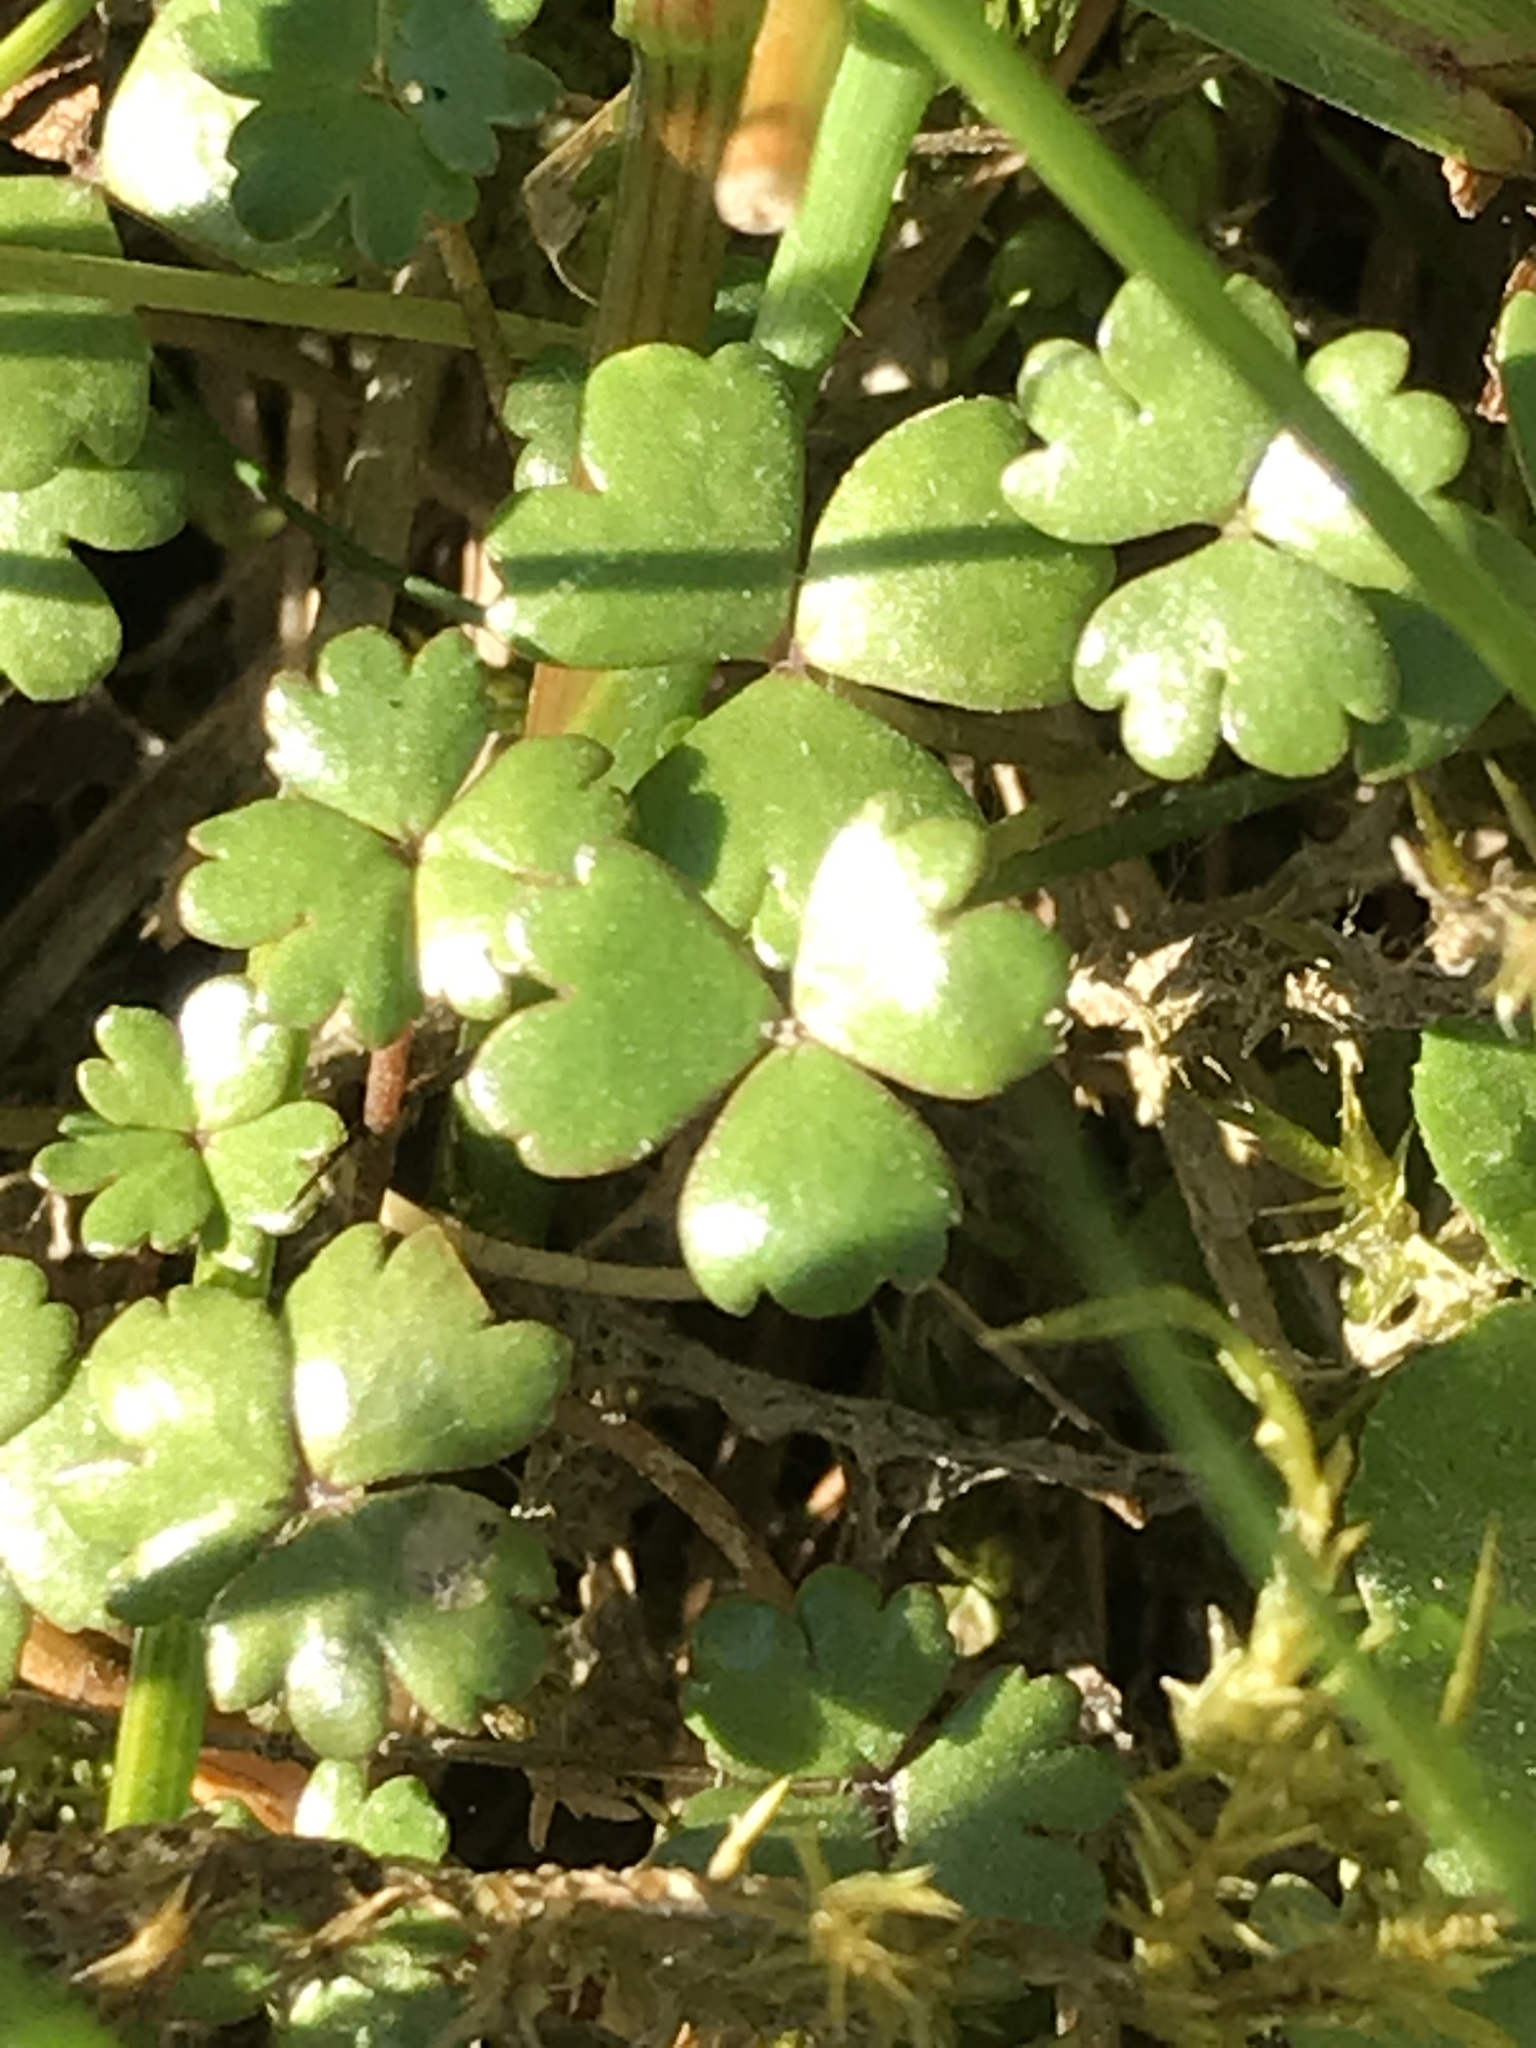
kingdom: Plantae
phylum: Tracheophyta
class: Magnoliopsida
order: Apiales
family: Araliaceae
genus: Hydrocotyle
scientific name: Hydrocotyle sulcata
